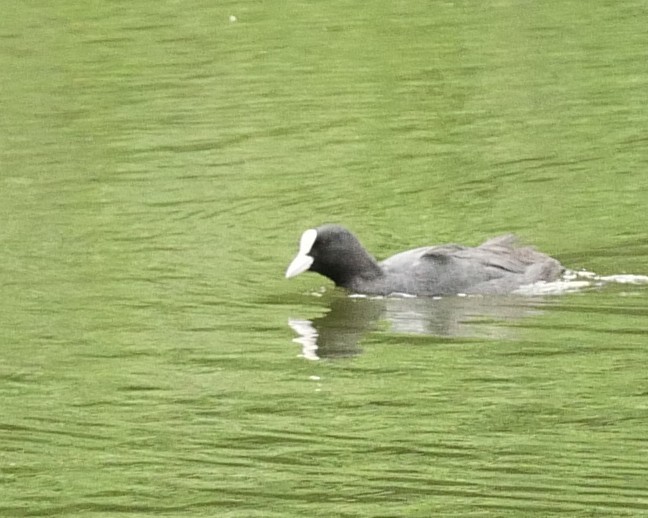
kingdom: Animalia
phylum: Chordata
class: Aves
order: Gruiformes
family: Rallidae
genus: Fulica
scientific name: Fulica atra
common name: Eurasian coot
